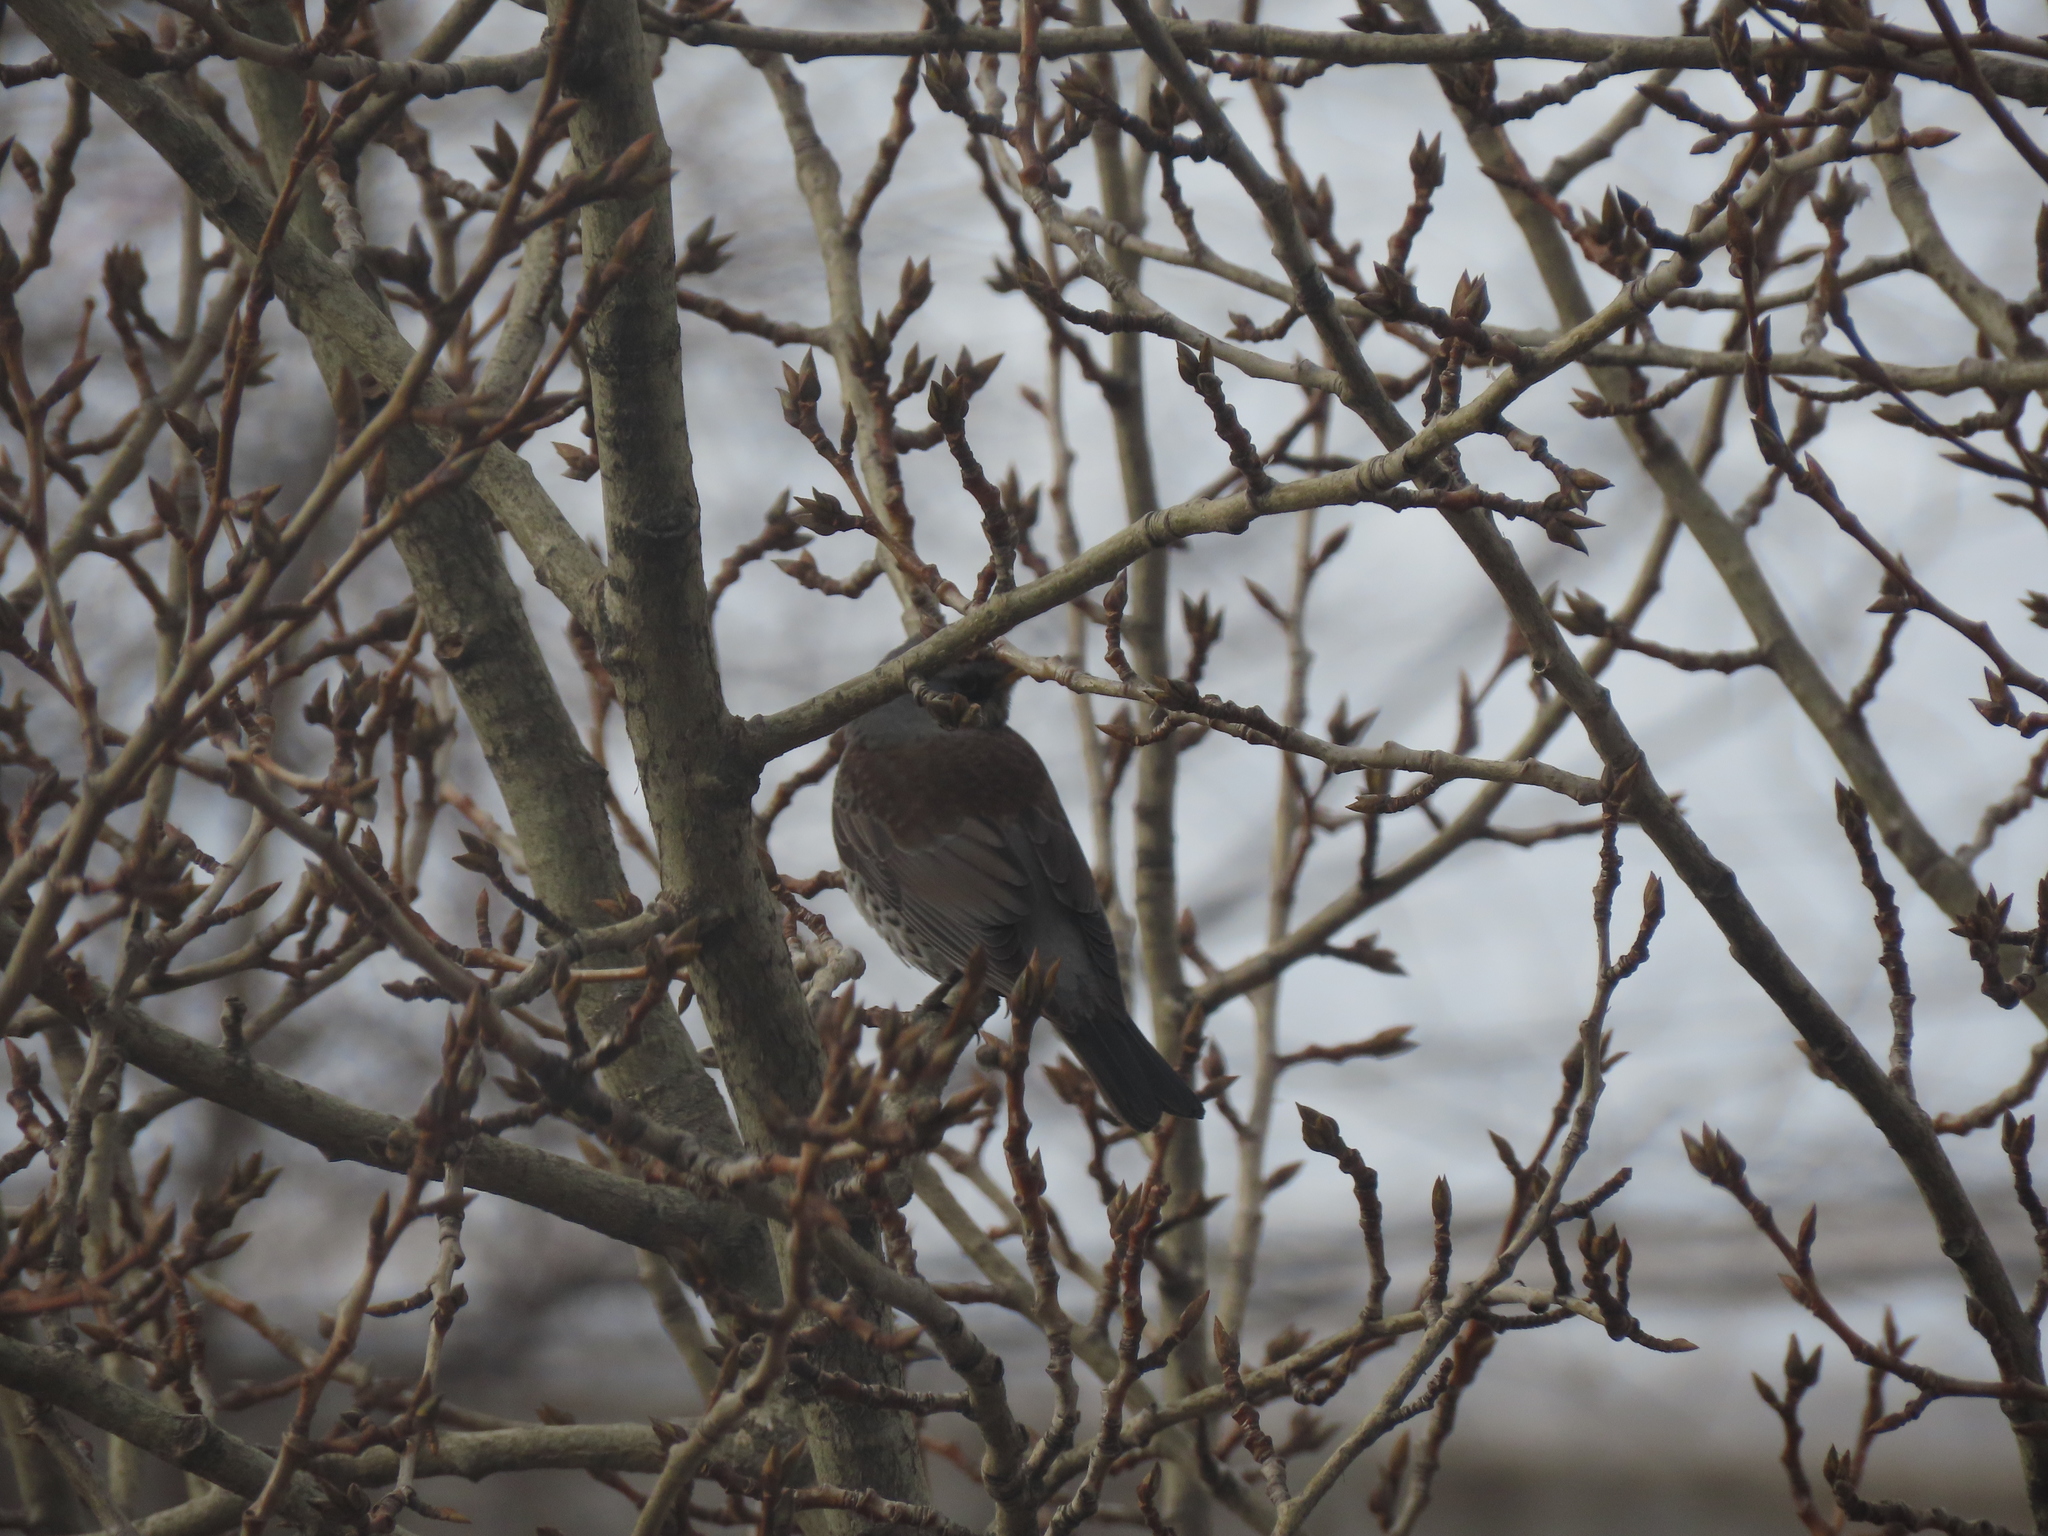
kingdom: Animalia
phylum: Chordata
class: Aves
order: Passeriformes
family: Turdidae
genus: Turdus
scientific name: Turdus pilaris
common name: Fieldfare
